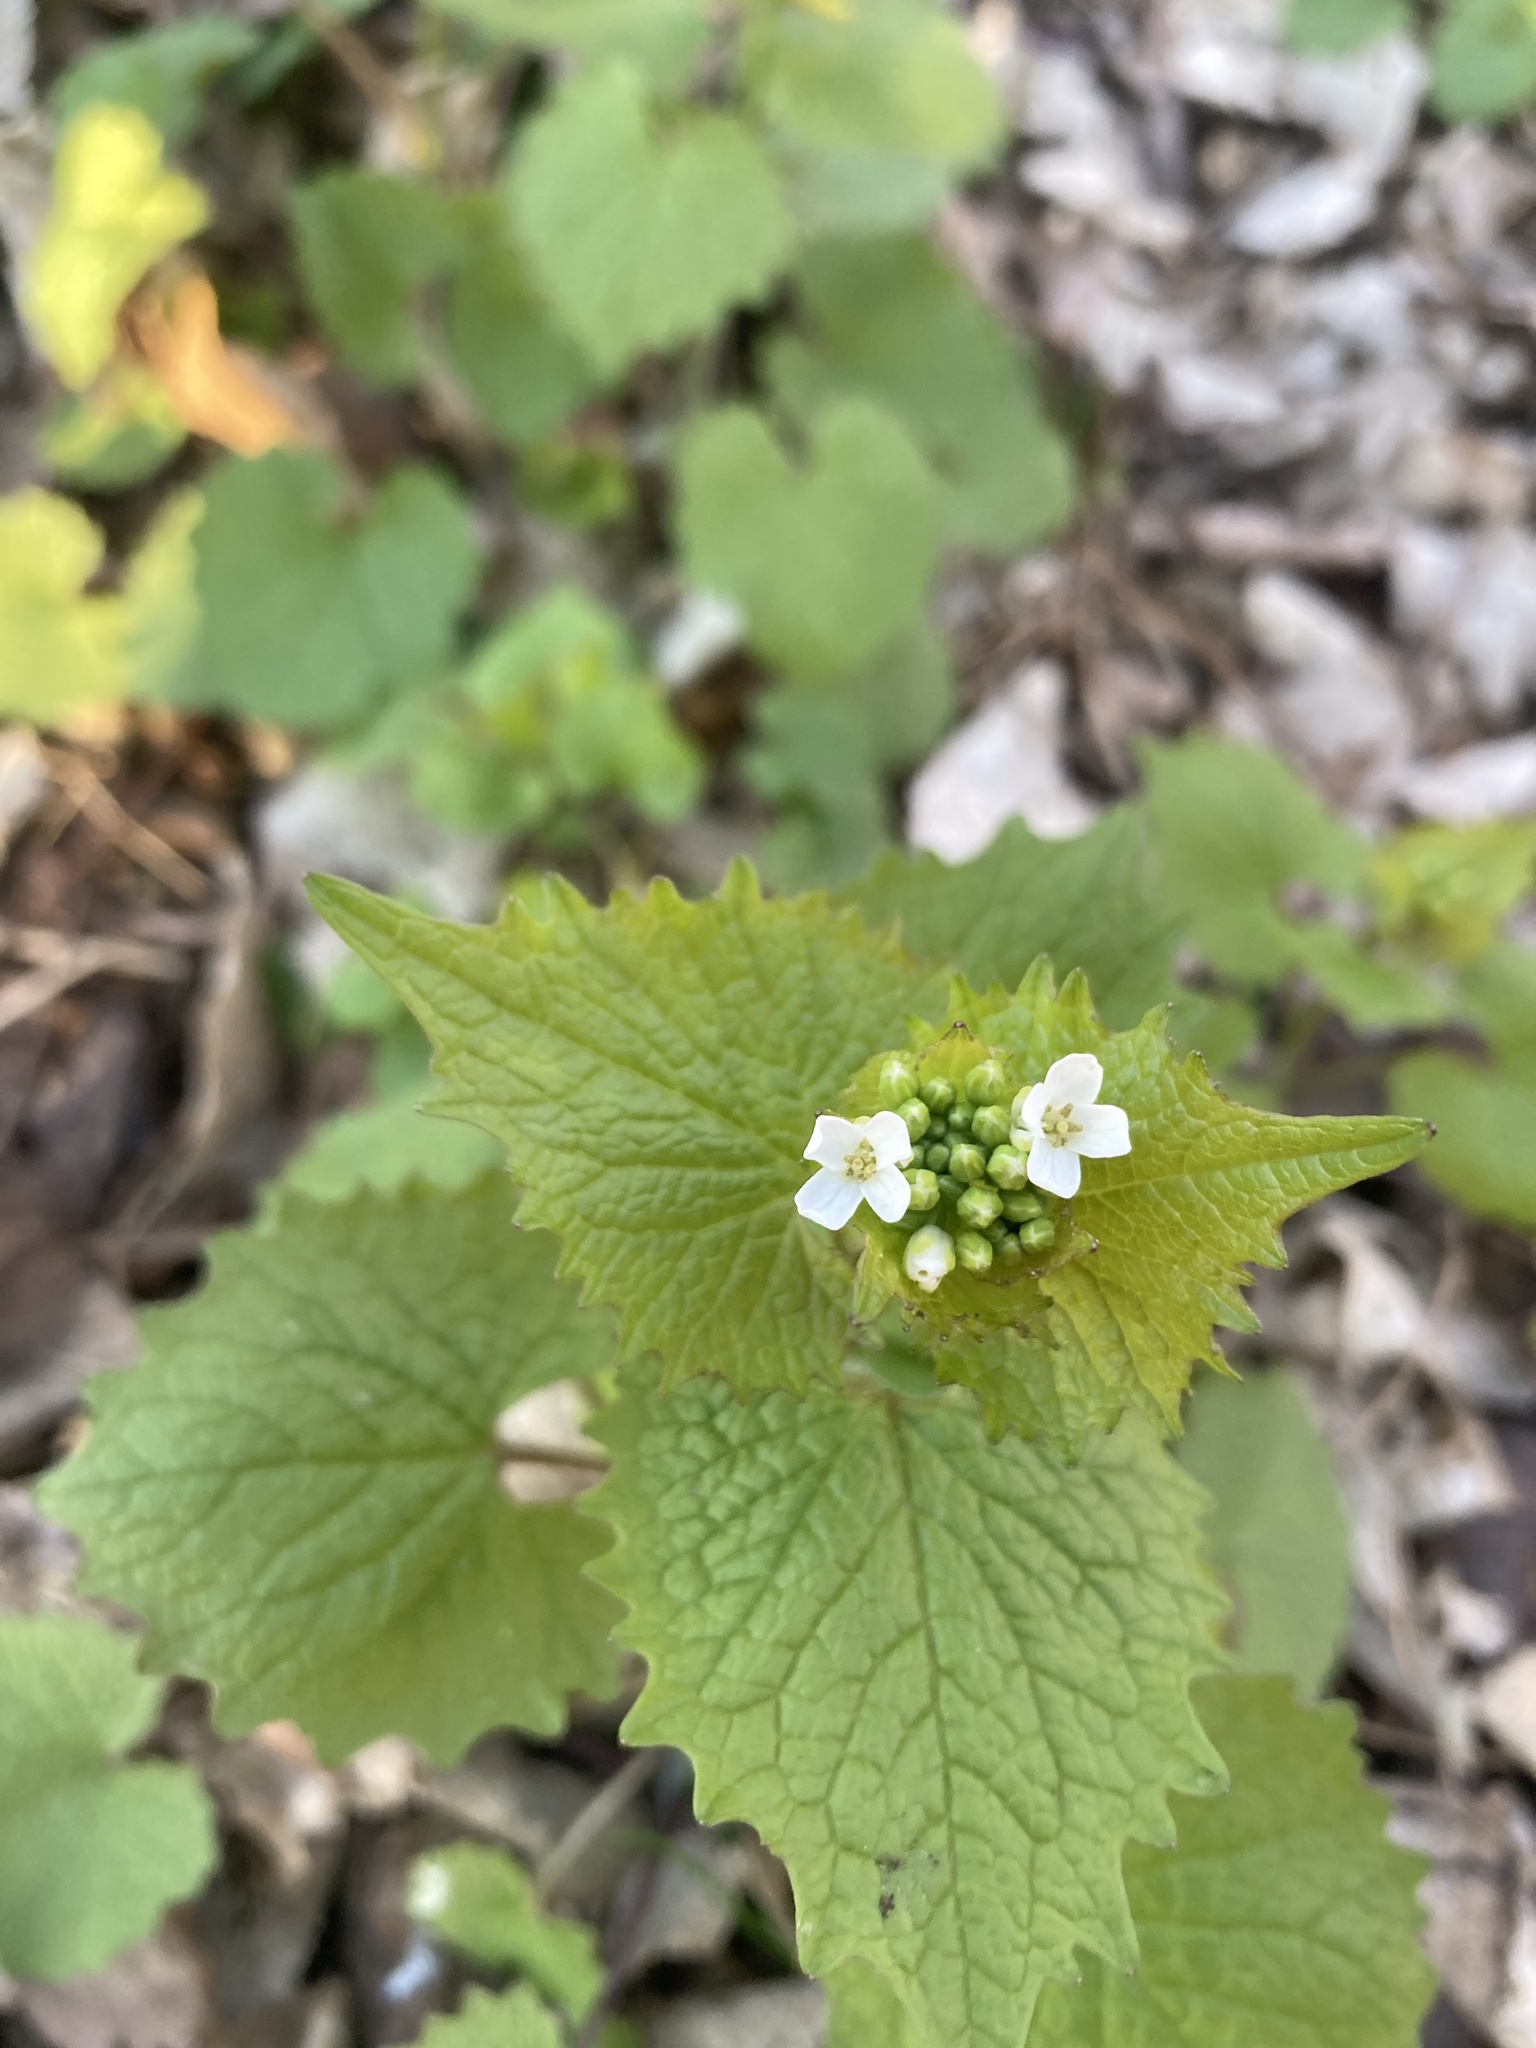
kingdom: Plantae
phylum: Tracheophyta
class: Magnoliopsida
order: Brassicales
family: Brassicaceae
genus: Alliaria
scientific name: Alliaria petiolata
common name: Garlic mustard
